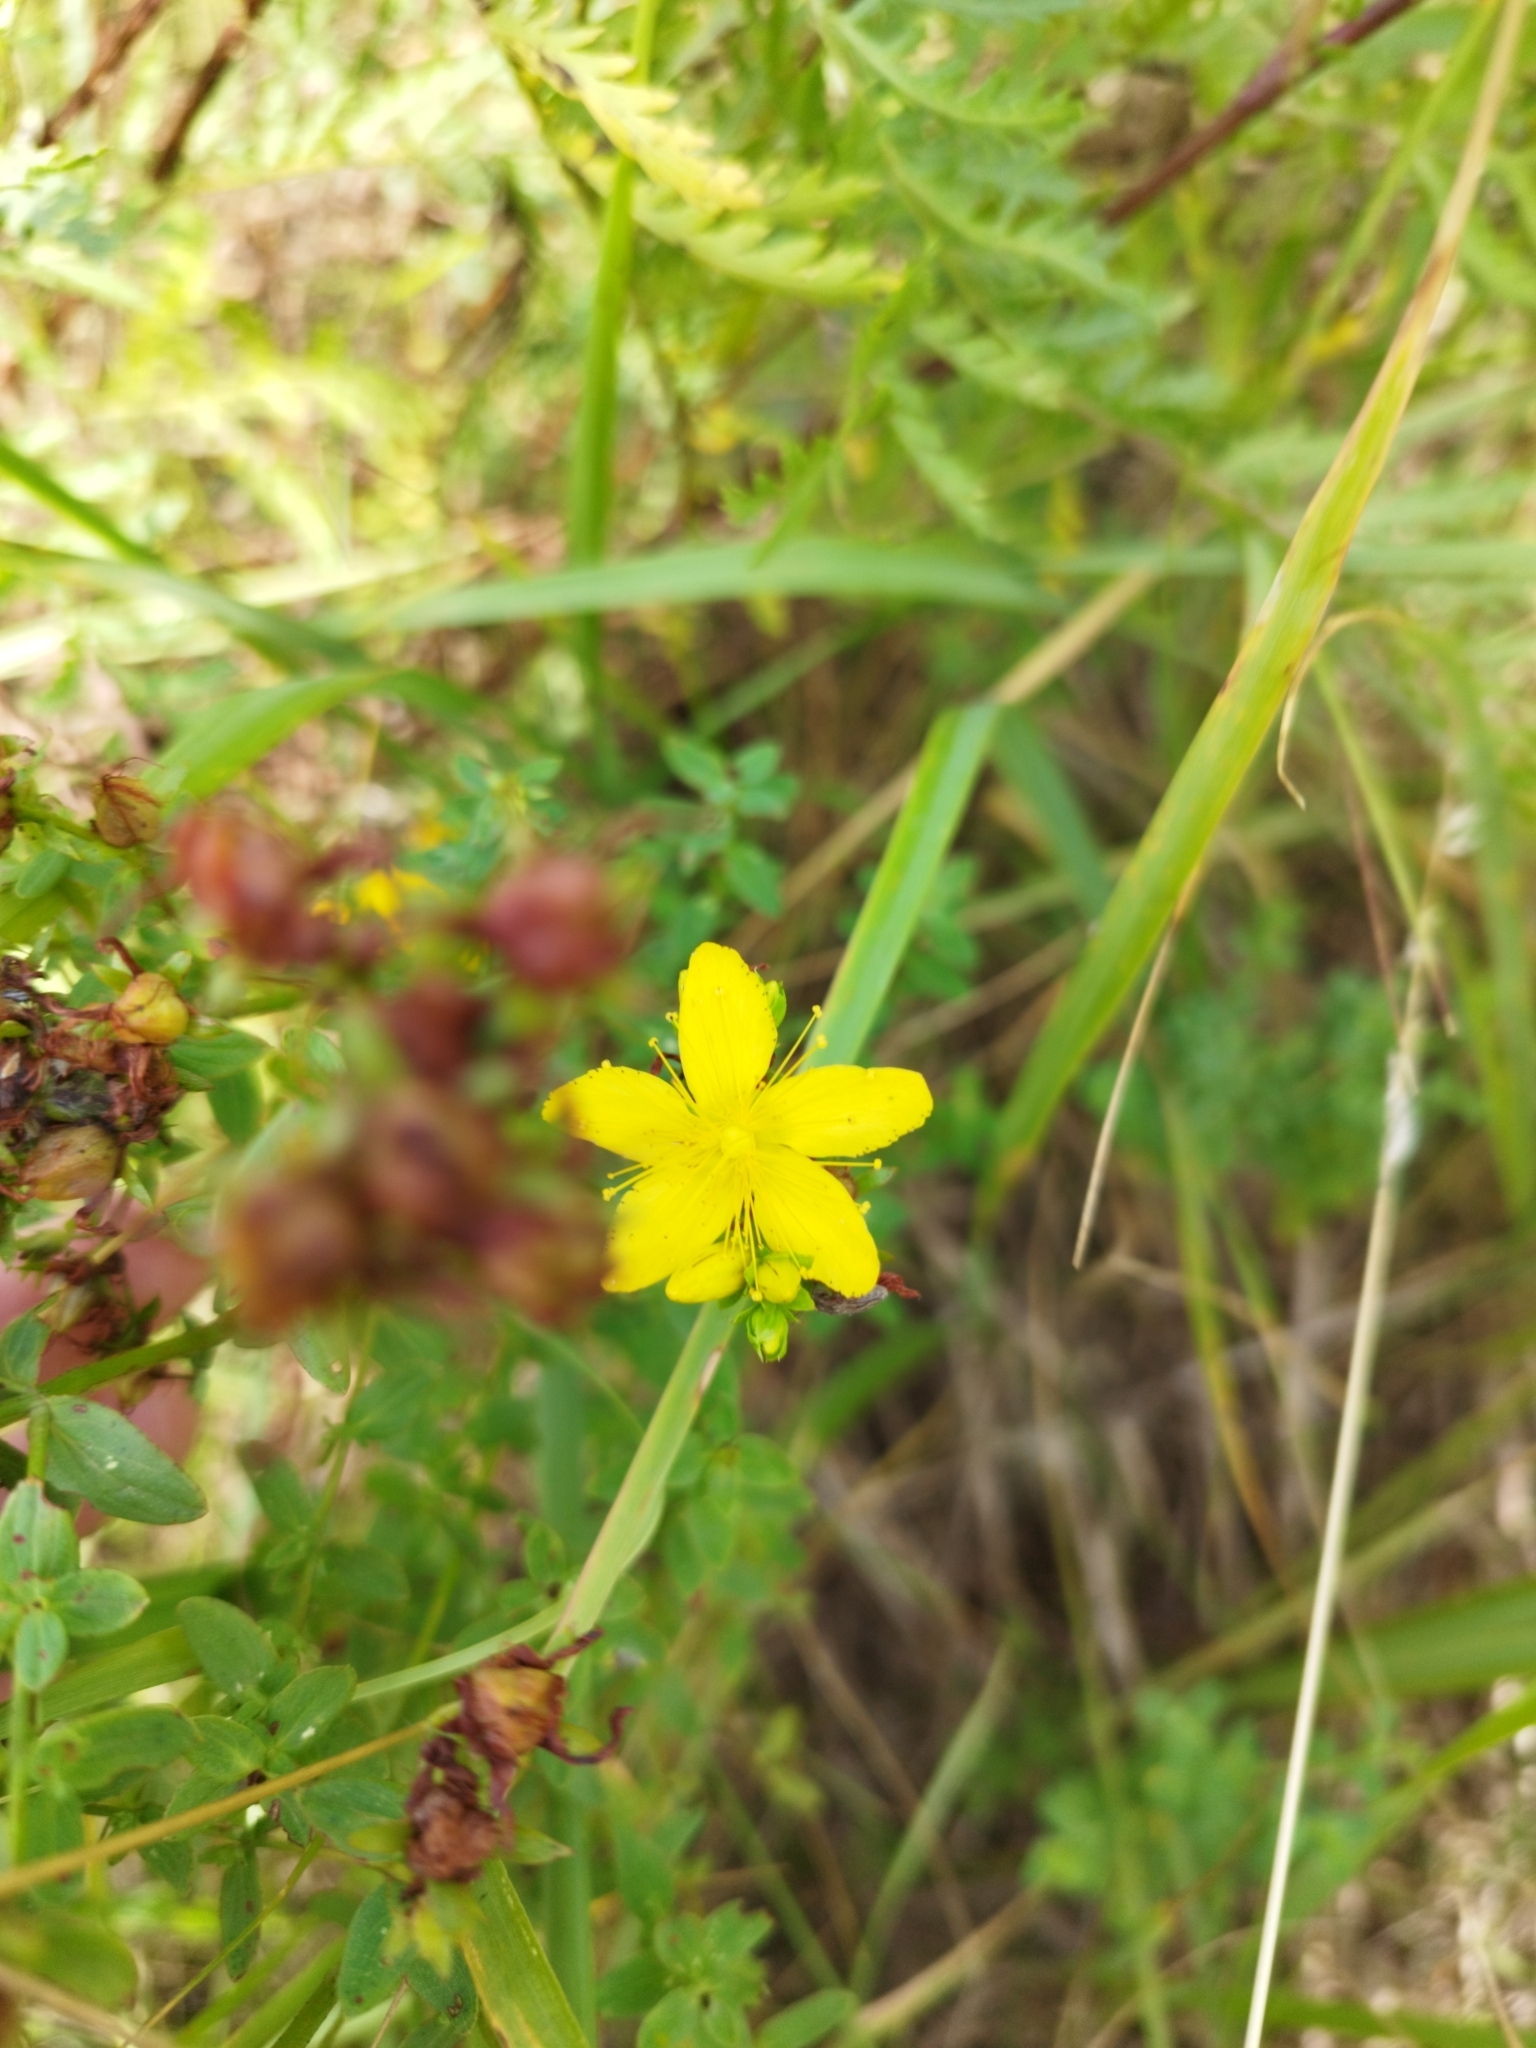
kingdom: Plantae
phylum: Tracheophyta
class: Magnoliopsida
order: Malpighiales
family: Hypericaceae
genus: Hypericum
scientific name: Hypericum perforatum
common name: Common st. johnswort
